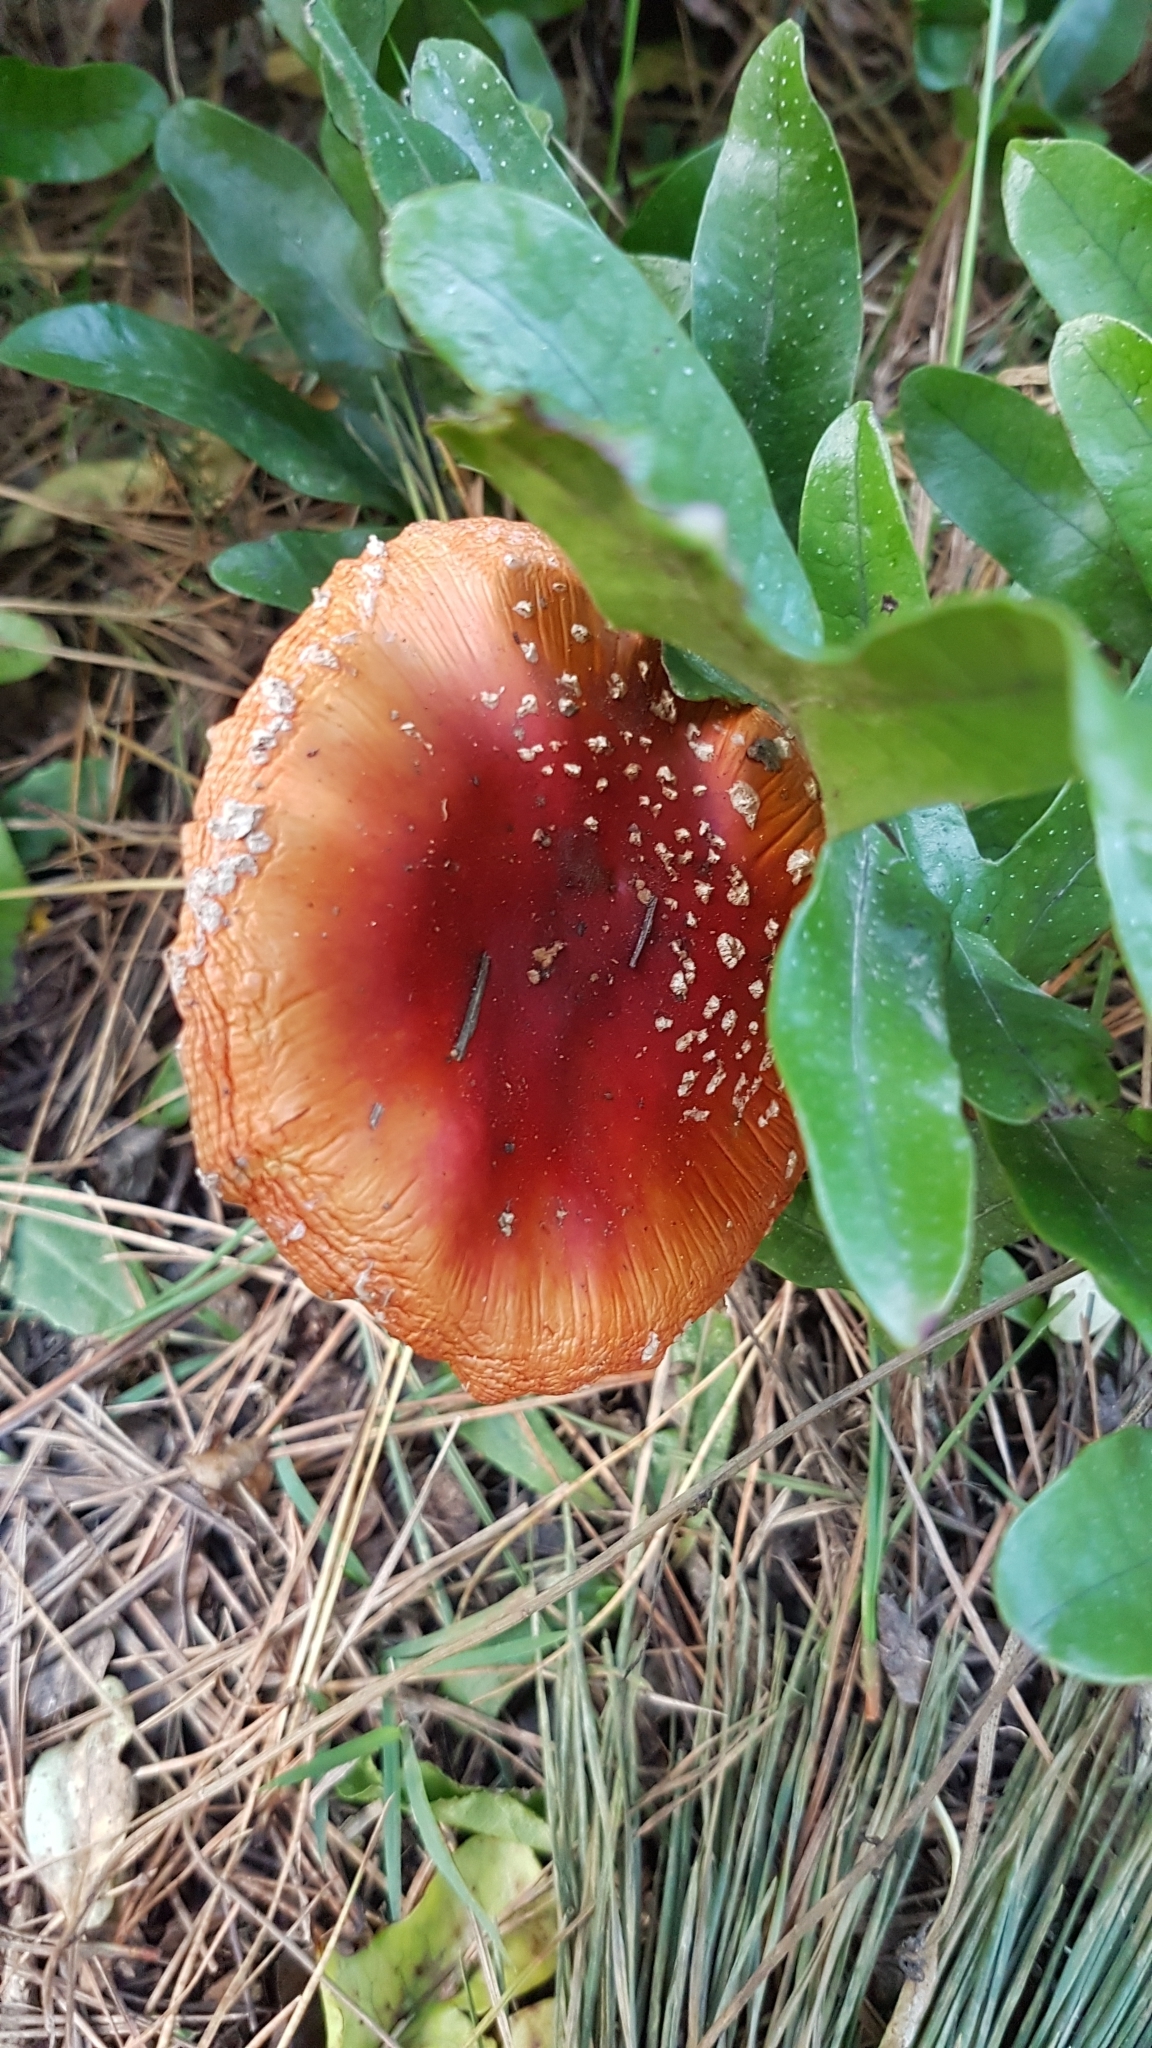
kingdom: Fungi
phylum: Basidiomycota
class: Agaricomycetes
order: Agaricales
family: Amanitaceae
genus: Amanita
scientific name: Amanita muscaria
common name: Fly agaric
